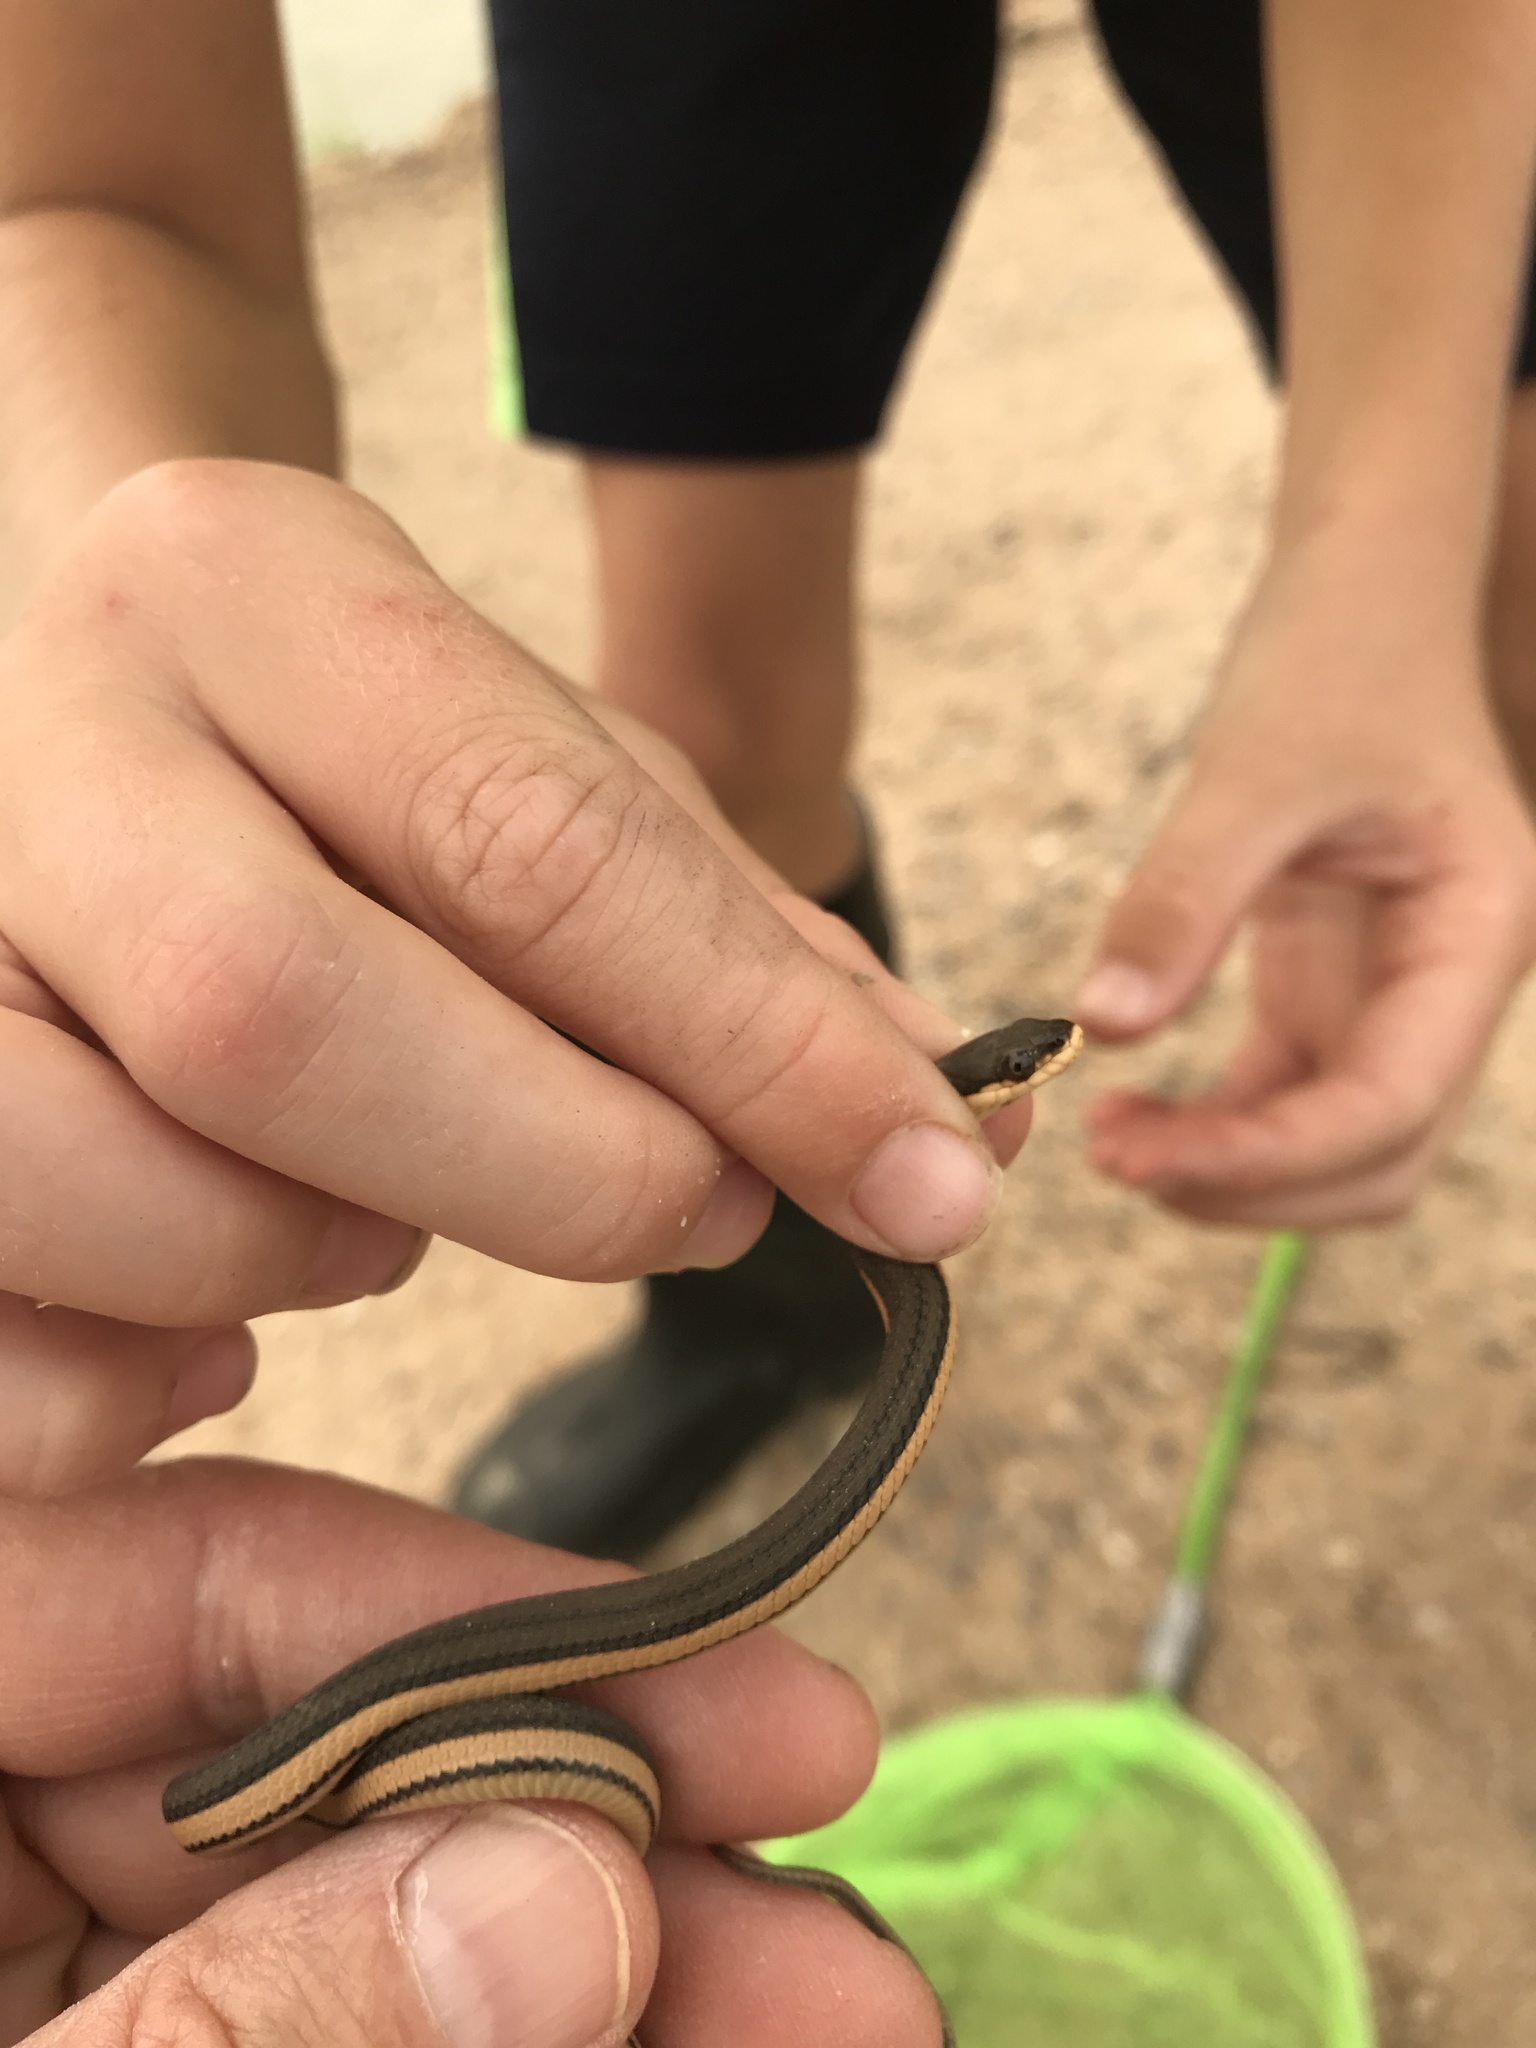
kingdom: Animalia
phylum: Chordata
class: Squamata
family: Colubridae
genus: Regina
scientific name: Regina grahamii
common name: Graham's crayfish snake
